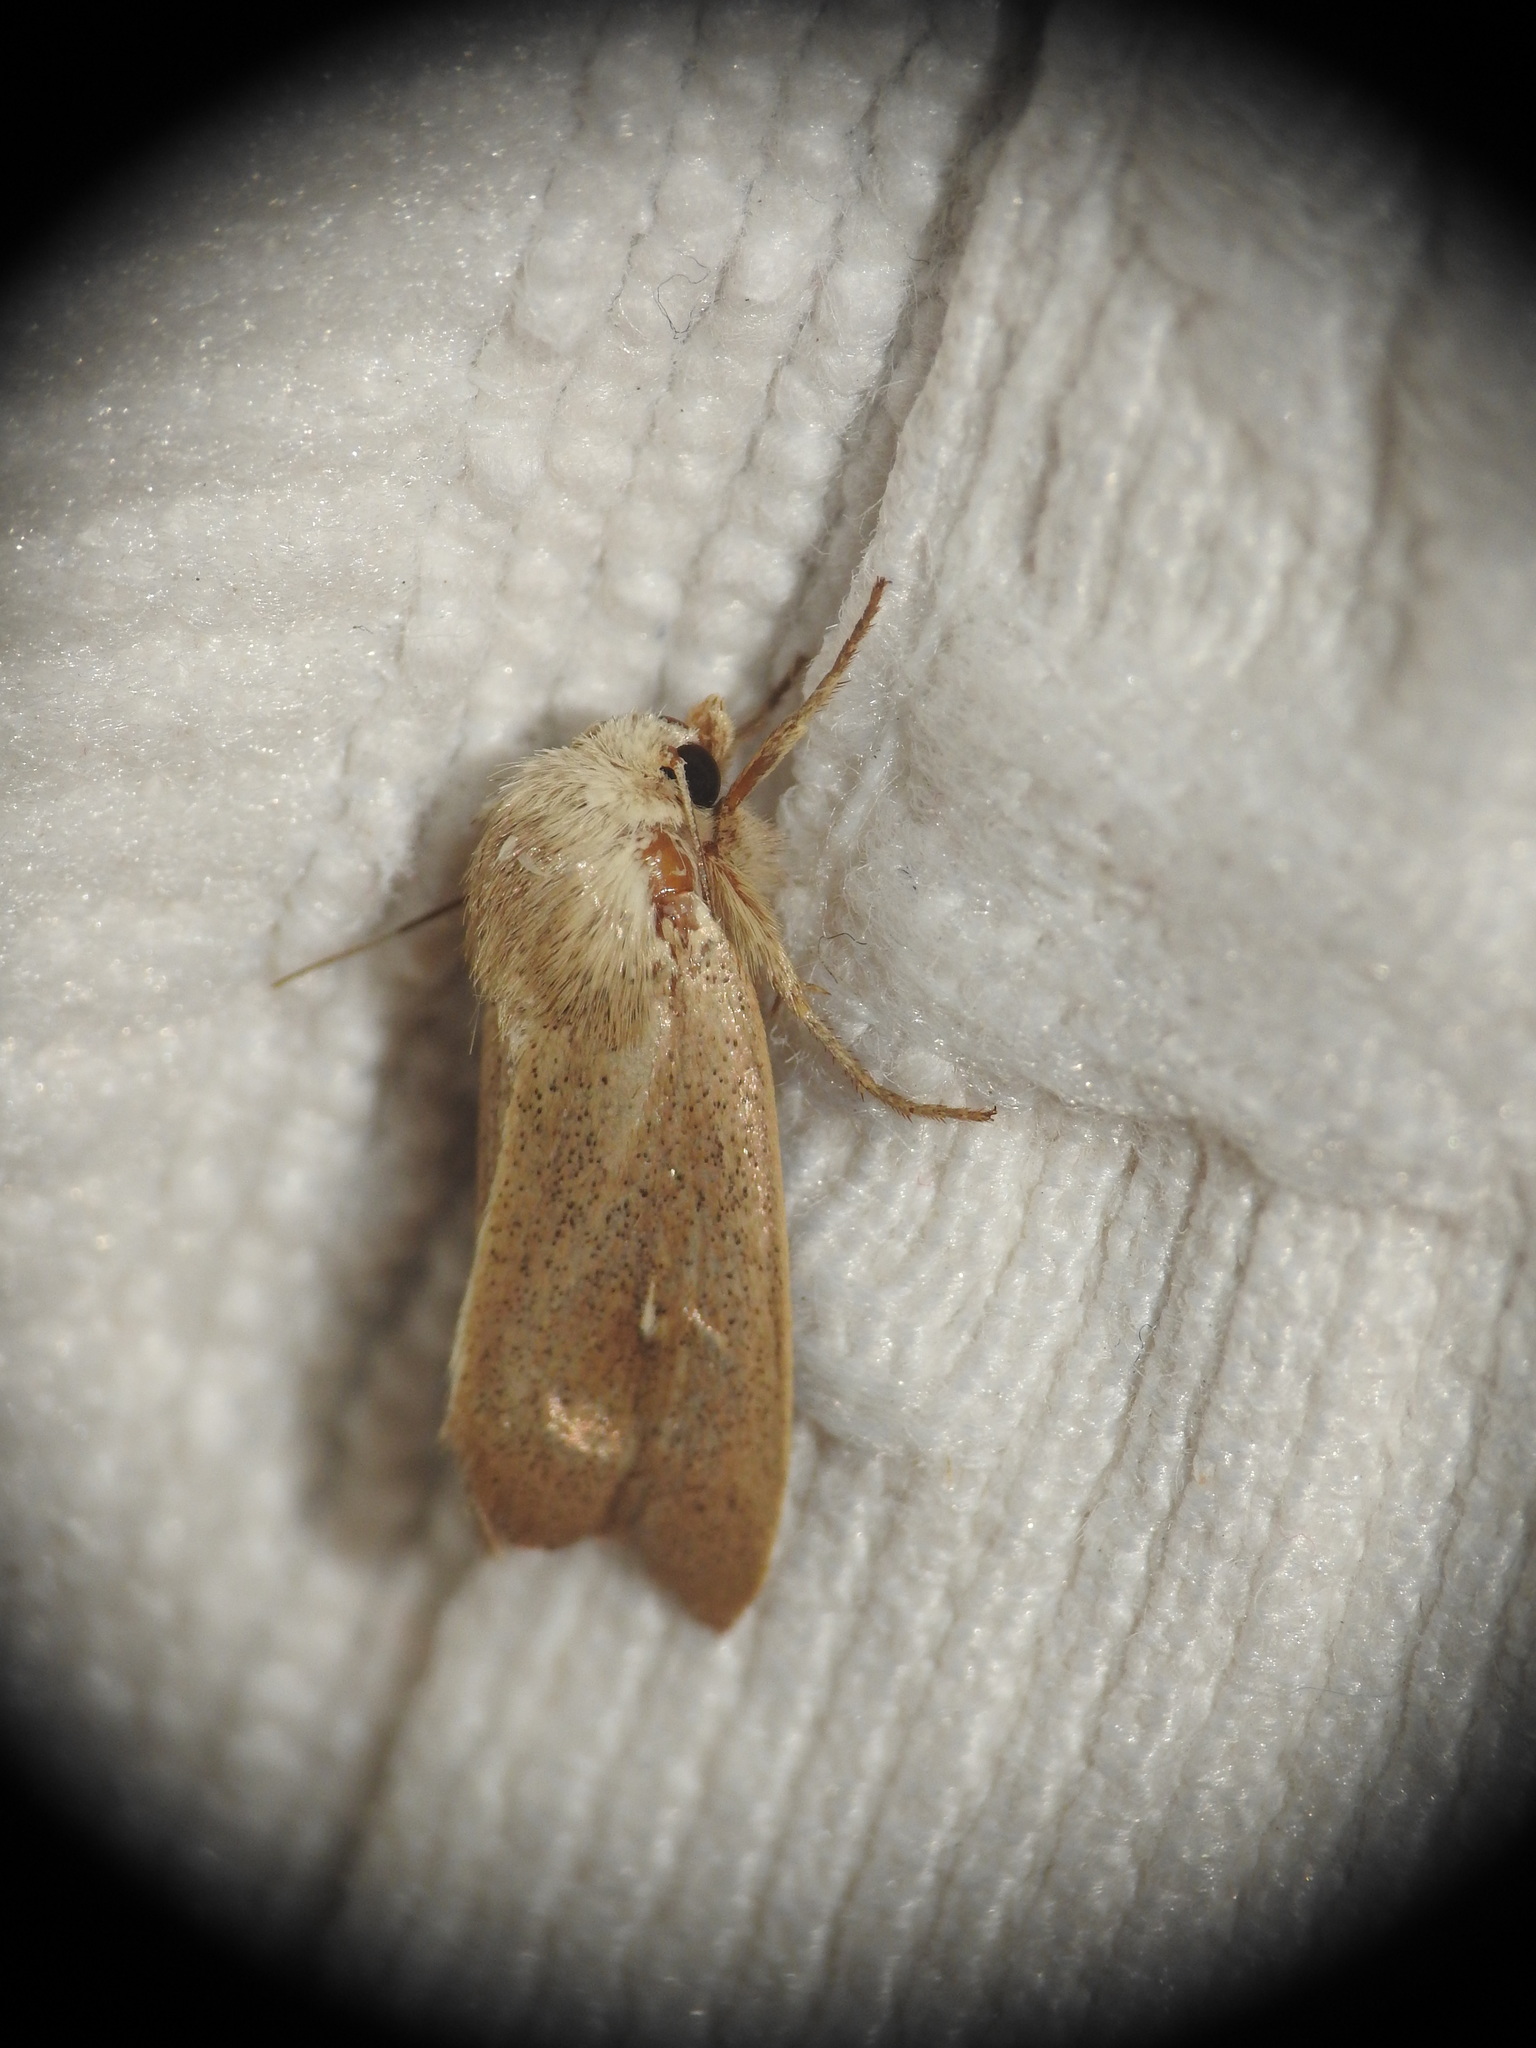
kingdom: Animalia
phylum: Arthropoda
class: Insecta
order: Lepidoptera
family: Noctuidae
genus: Mythimna
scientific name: Mythimna sicula
